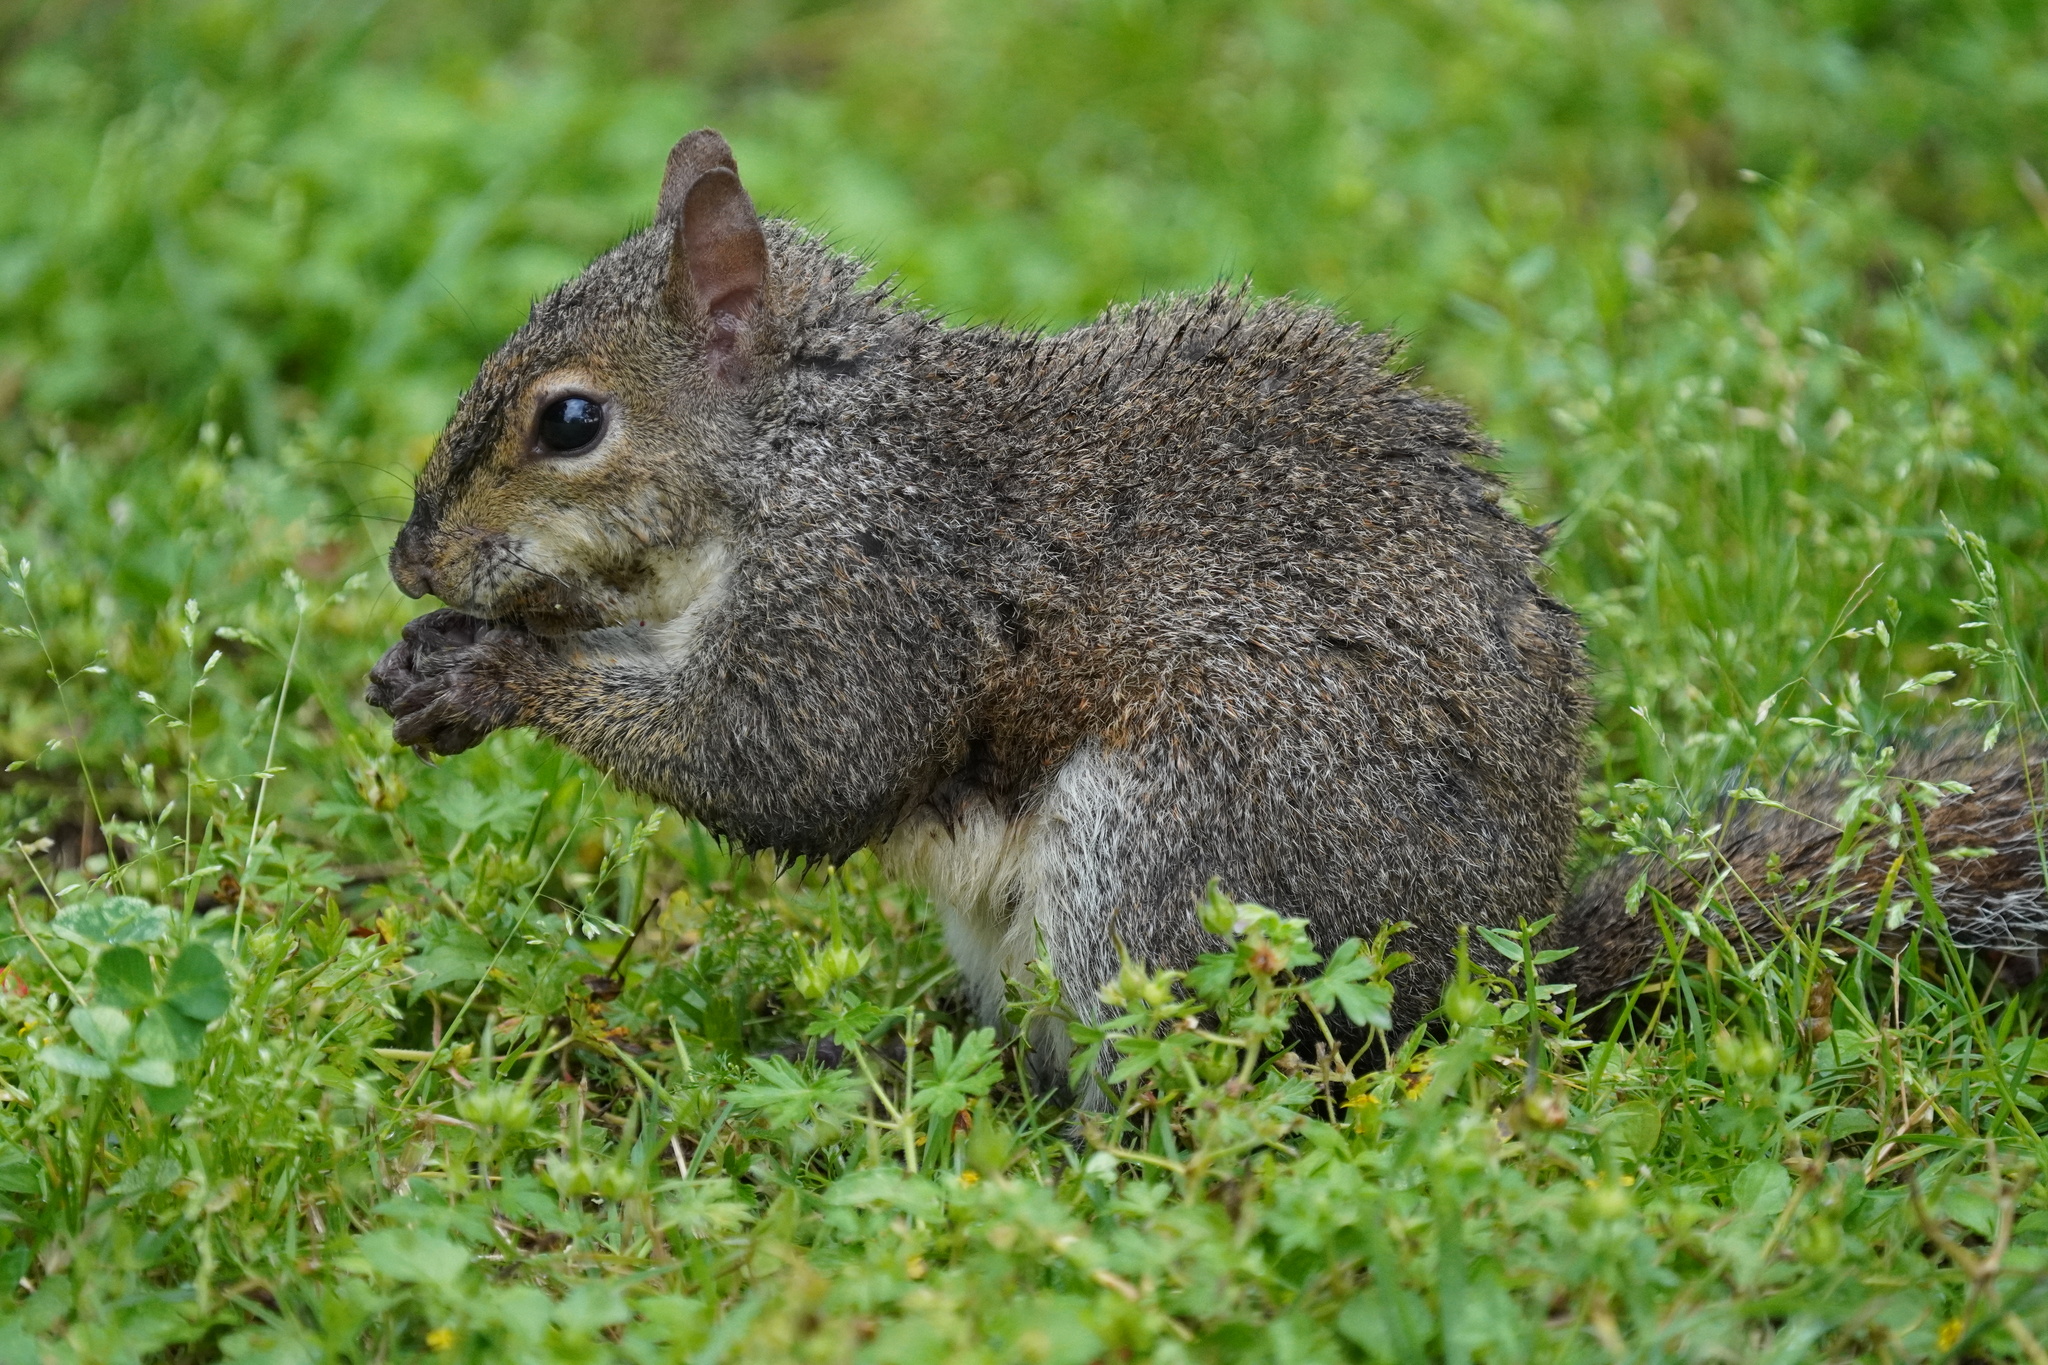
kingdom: Animalia
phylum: Chordata
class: Mammalia
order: Rodentia
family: Sciuridae
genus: Sciurus
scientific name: Sciurus carolinensis
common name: Eastern gray squirrel
